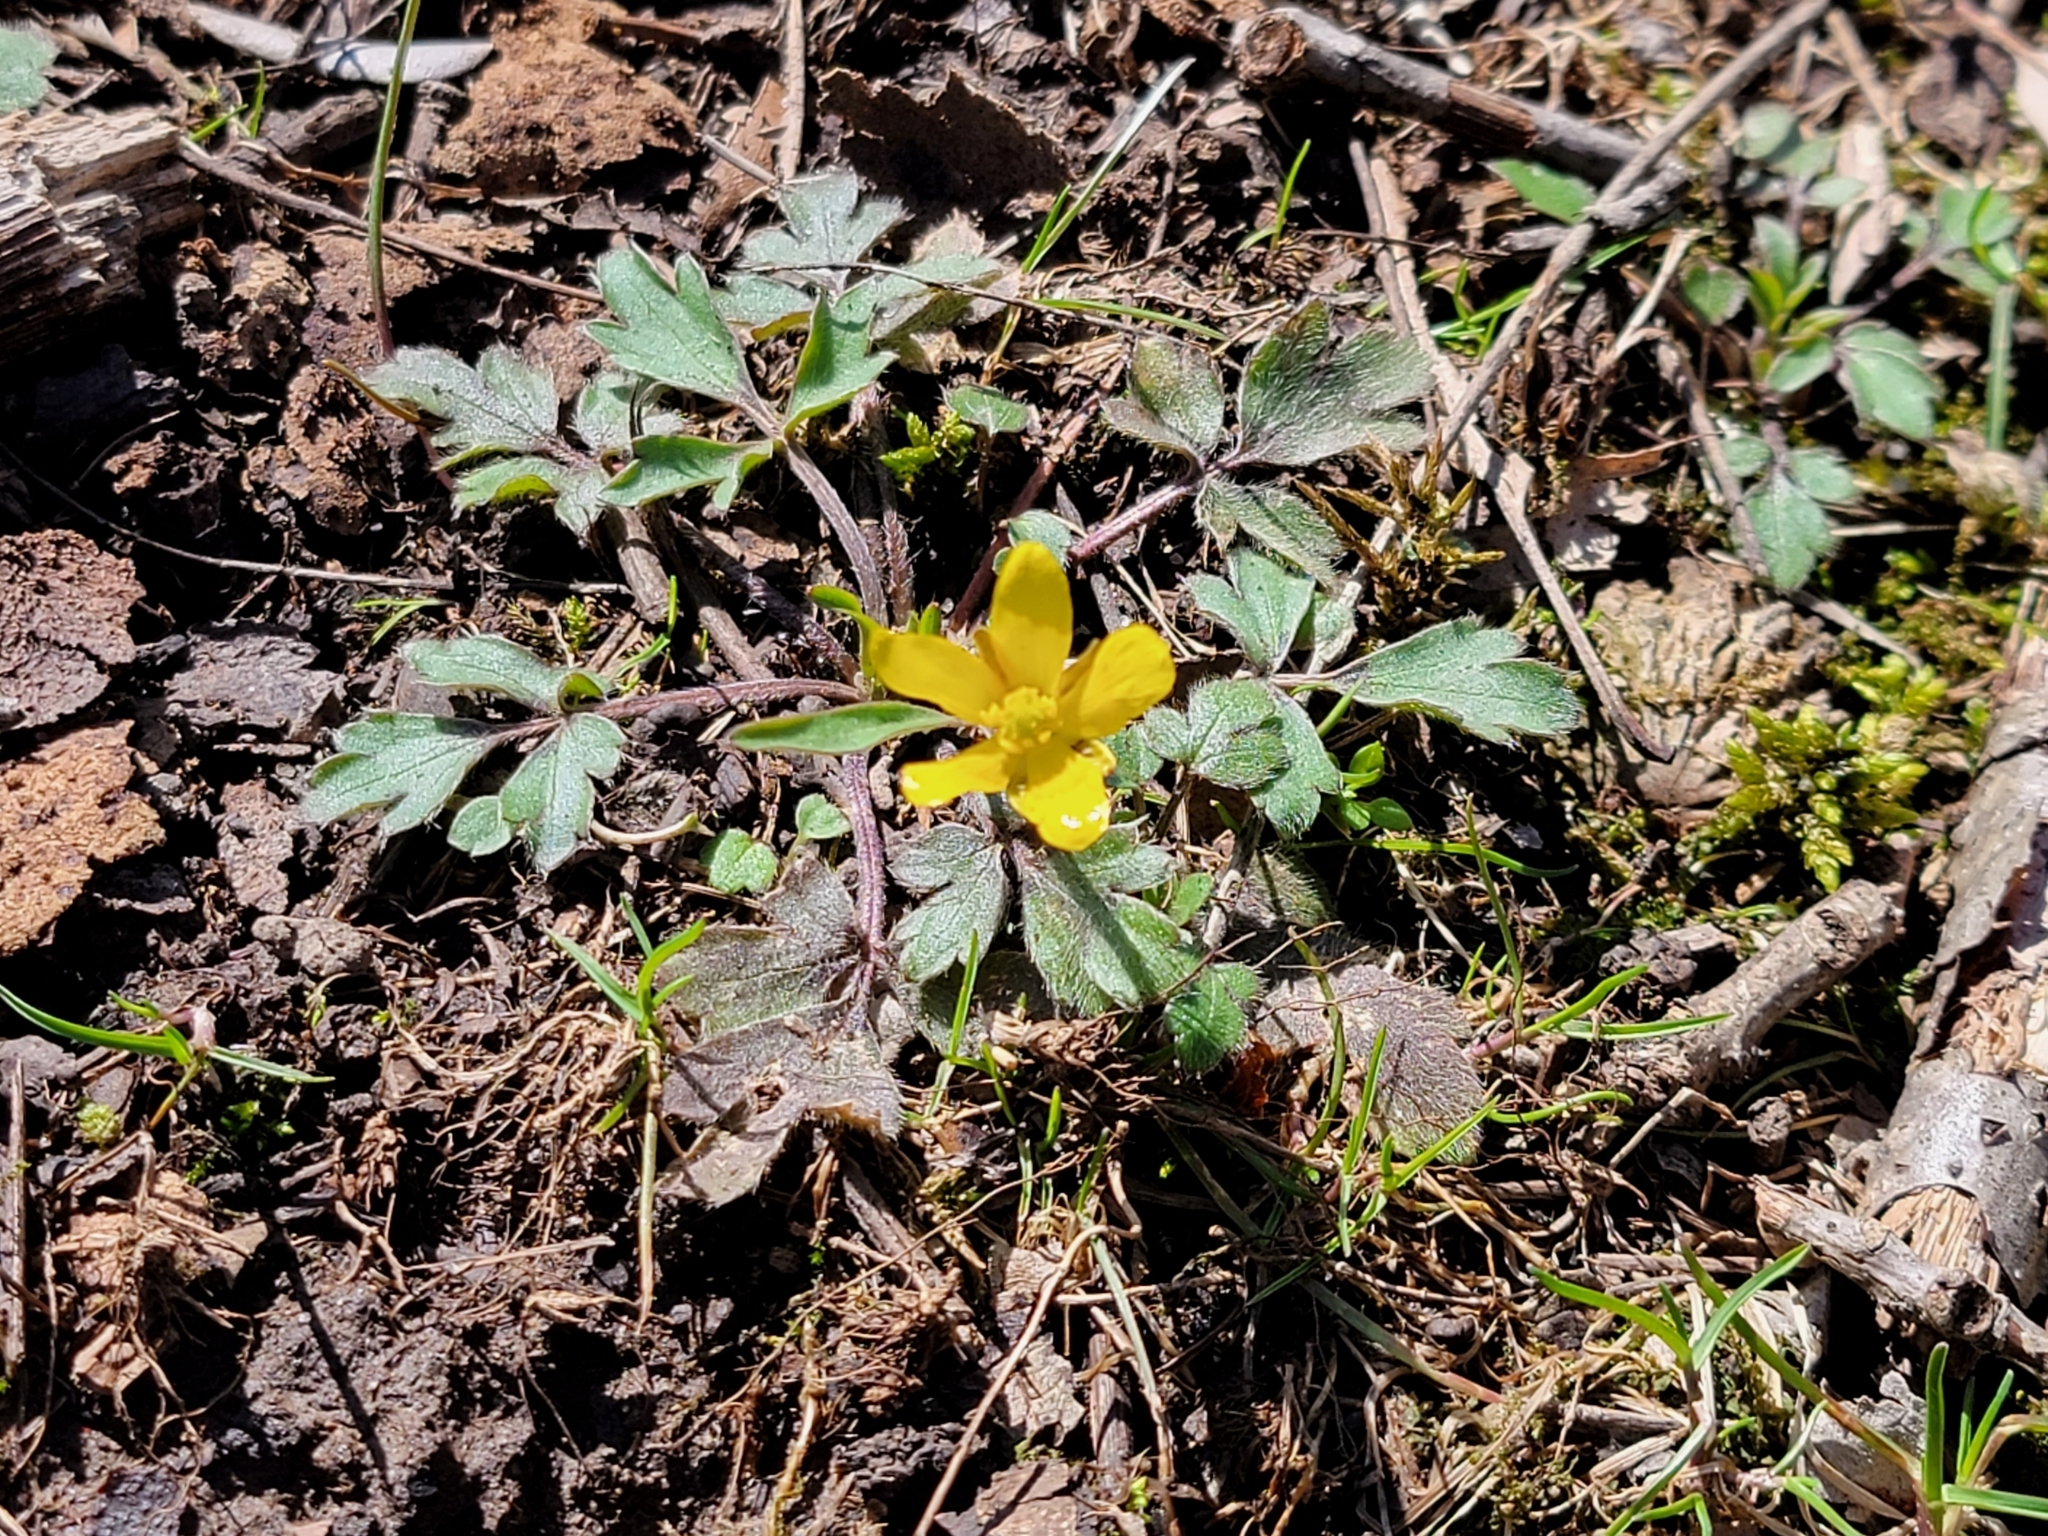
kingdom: Plantae
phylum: Tracheophyta
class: Magnoliopsida
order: Ranunculales
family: Ranunculaceae
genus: Ranunculus
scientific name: Ranunculus fascicularis
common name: Early buttercup
